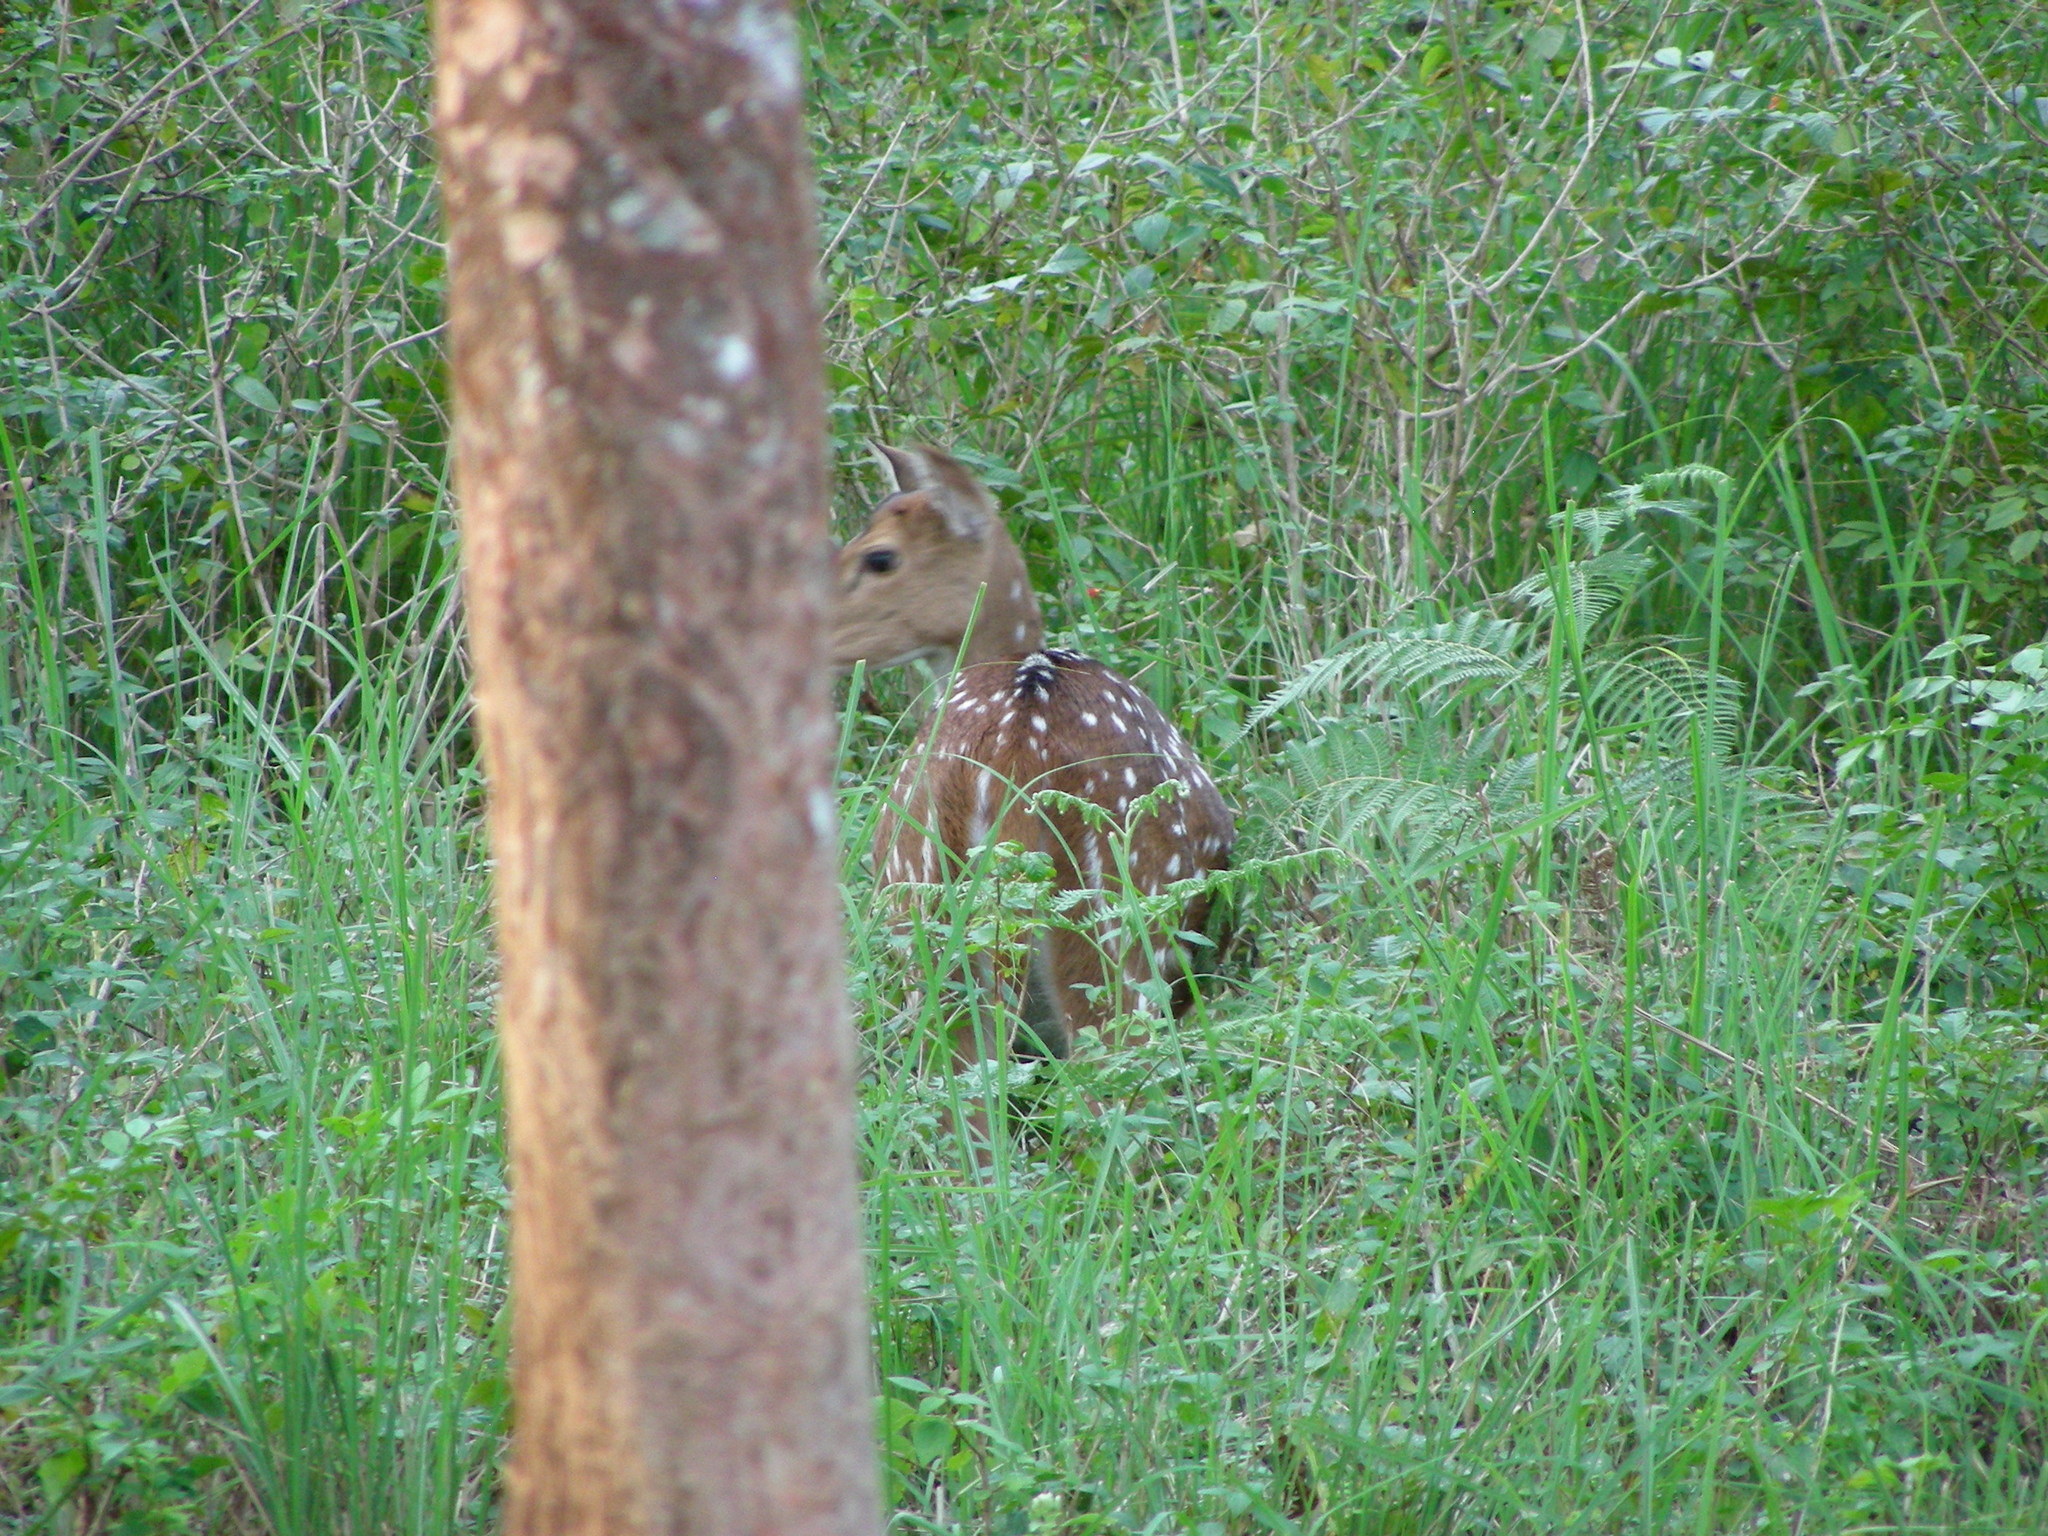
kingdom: Animalia
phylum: Chordata
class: Mammalia
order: Artiodactyla
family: Cervidae
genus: Axis
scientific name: Axis axis
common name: Chital
